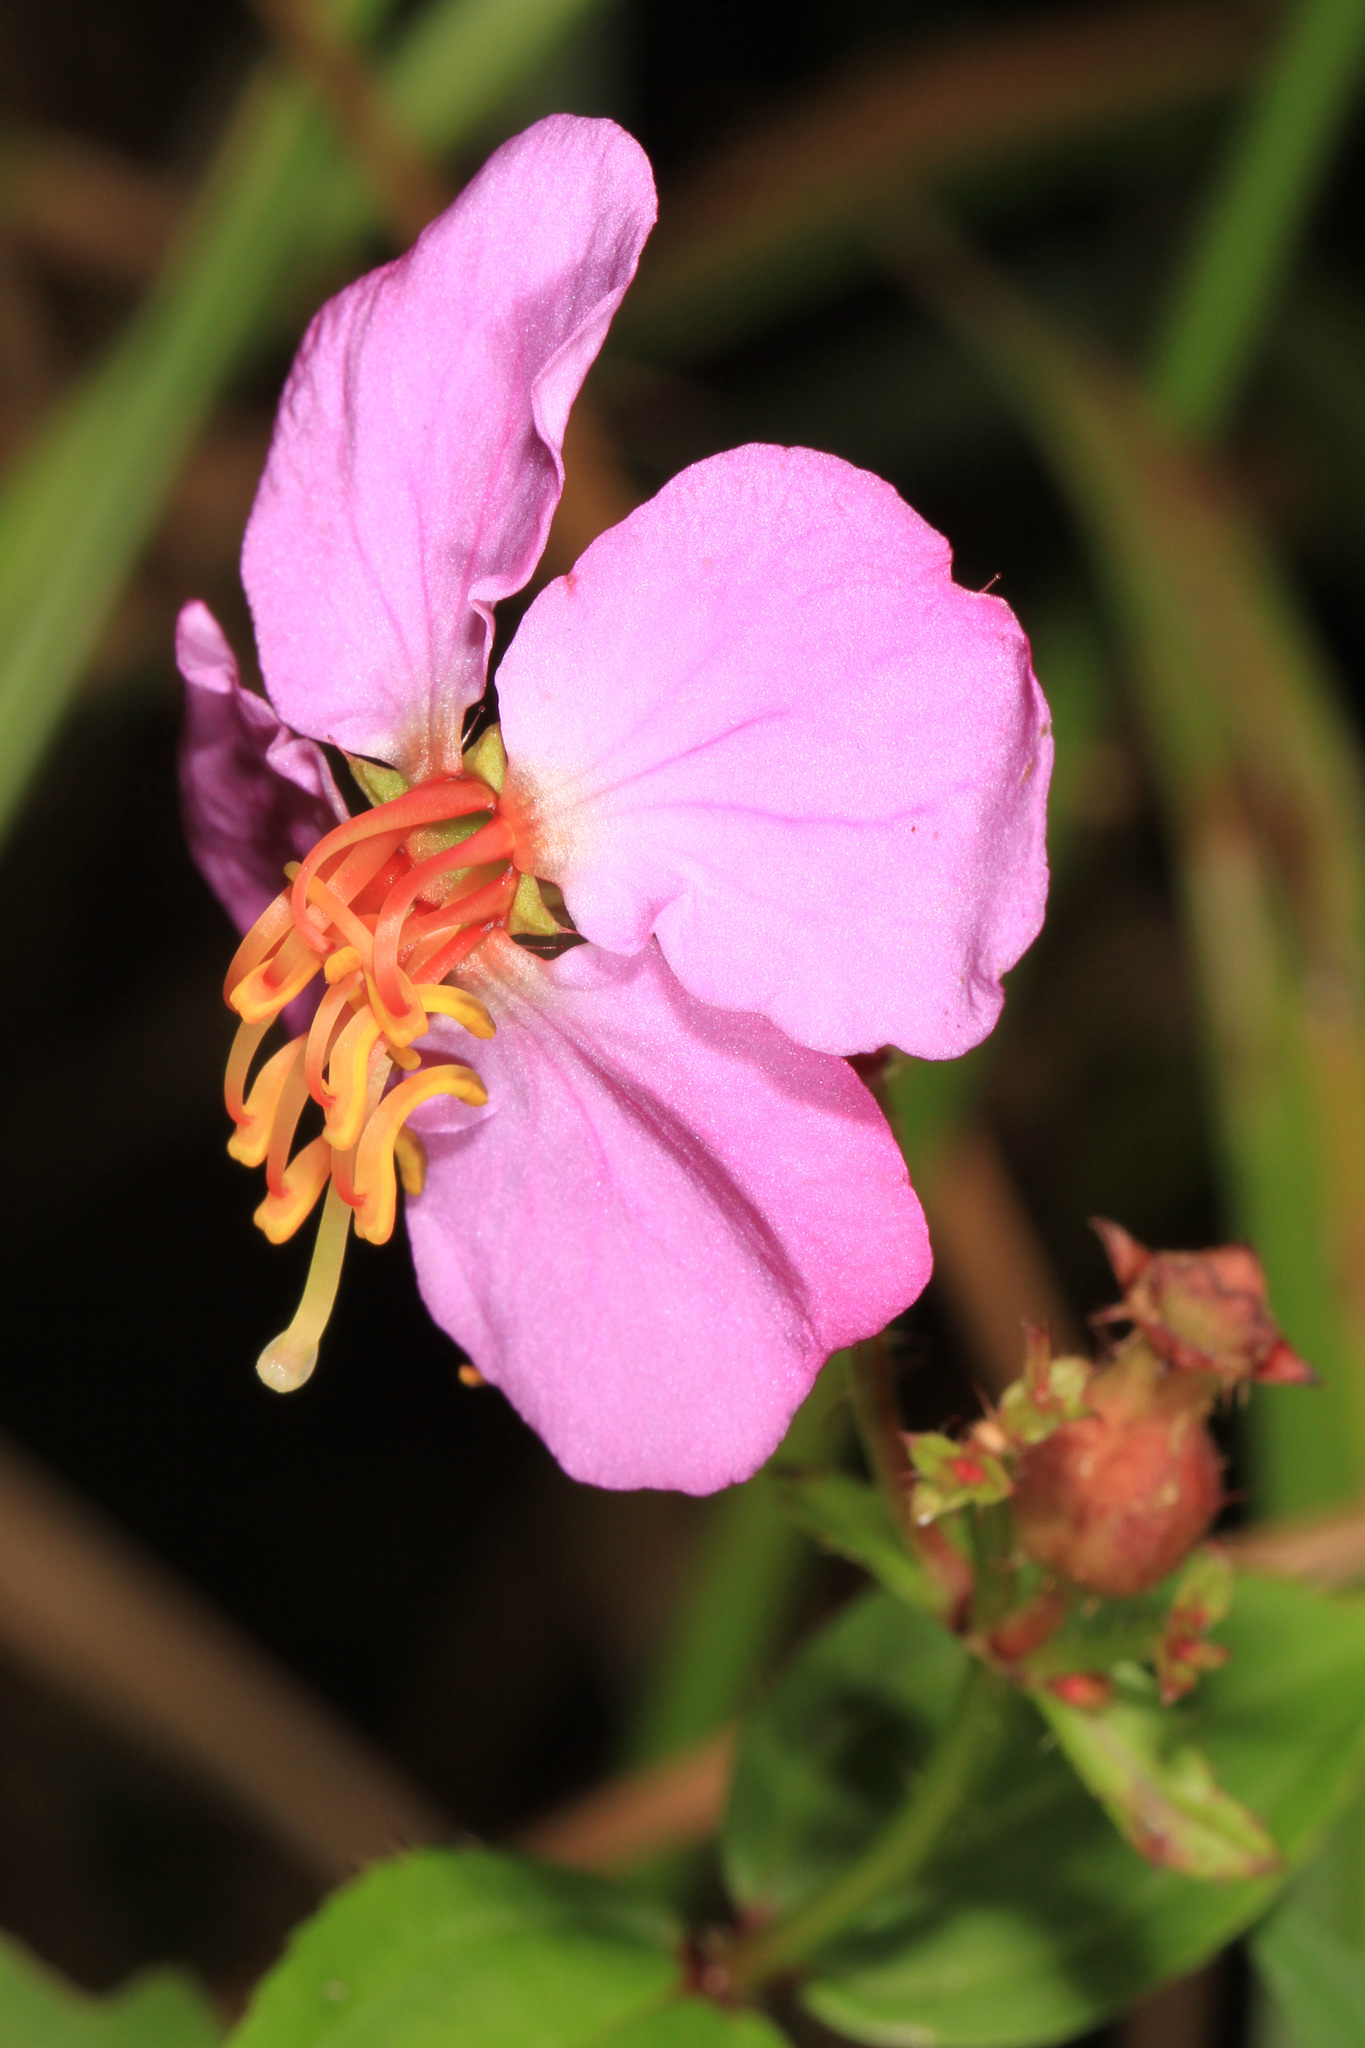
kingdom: Plantae
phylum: Tracheophyta
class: Magnoliopsida
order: Myrtales
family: Melastomataceae
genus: Rhexia
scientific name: Rhexia virginica
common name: Common meadow beauty
